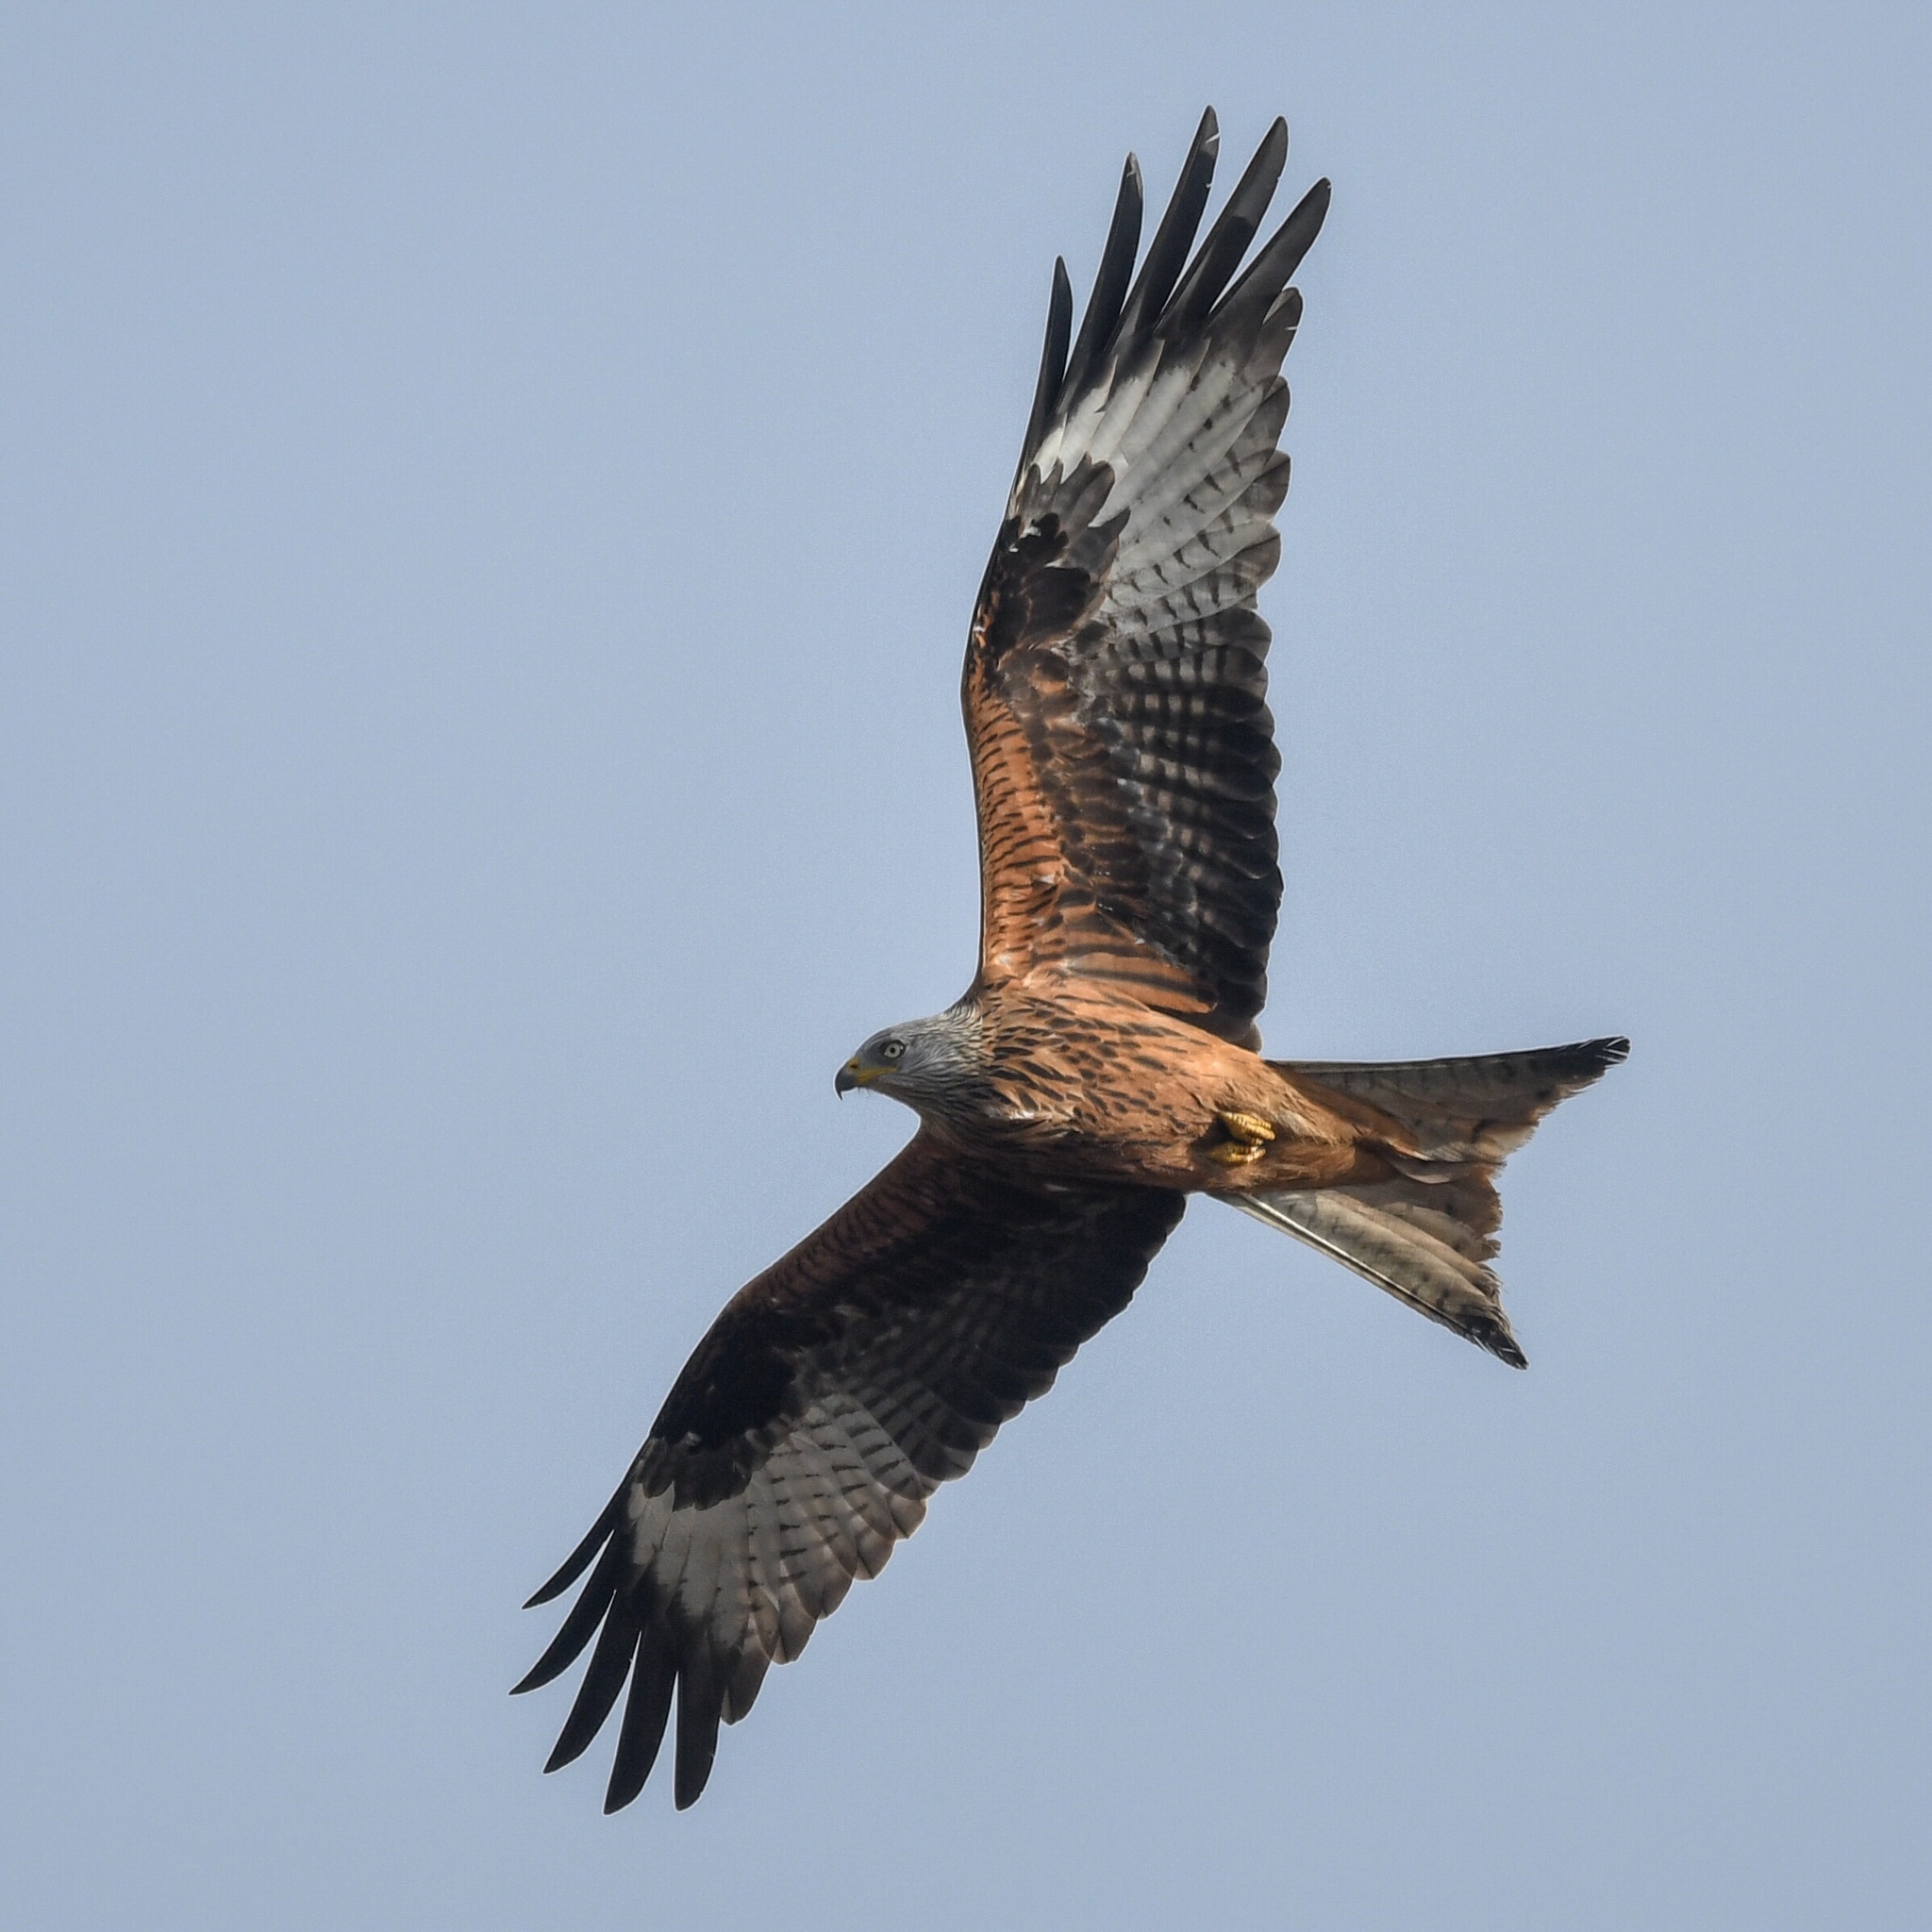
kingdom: Animalia
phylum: Chordata
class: Aves
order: Accipitriformes
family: Accipitridae
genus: Milvus
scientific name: Milvus milvus
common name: Red kite
